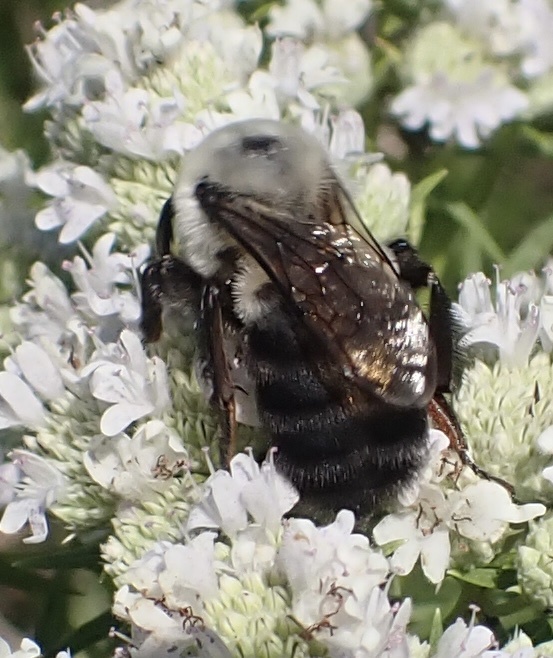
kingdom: Animalia
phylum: Arthropoda
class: Insecta
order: Hymenoptera
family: Apidae
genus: Bombus
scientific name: Bombus griseocollis
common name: Brown-belted bumble bee
